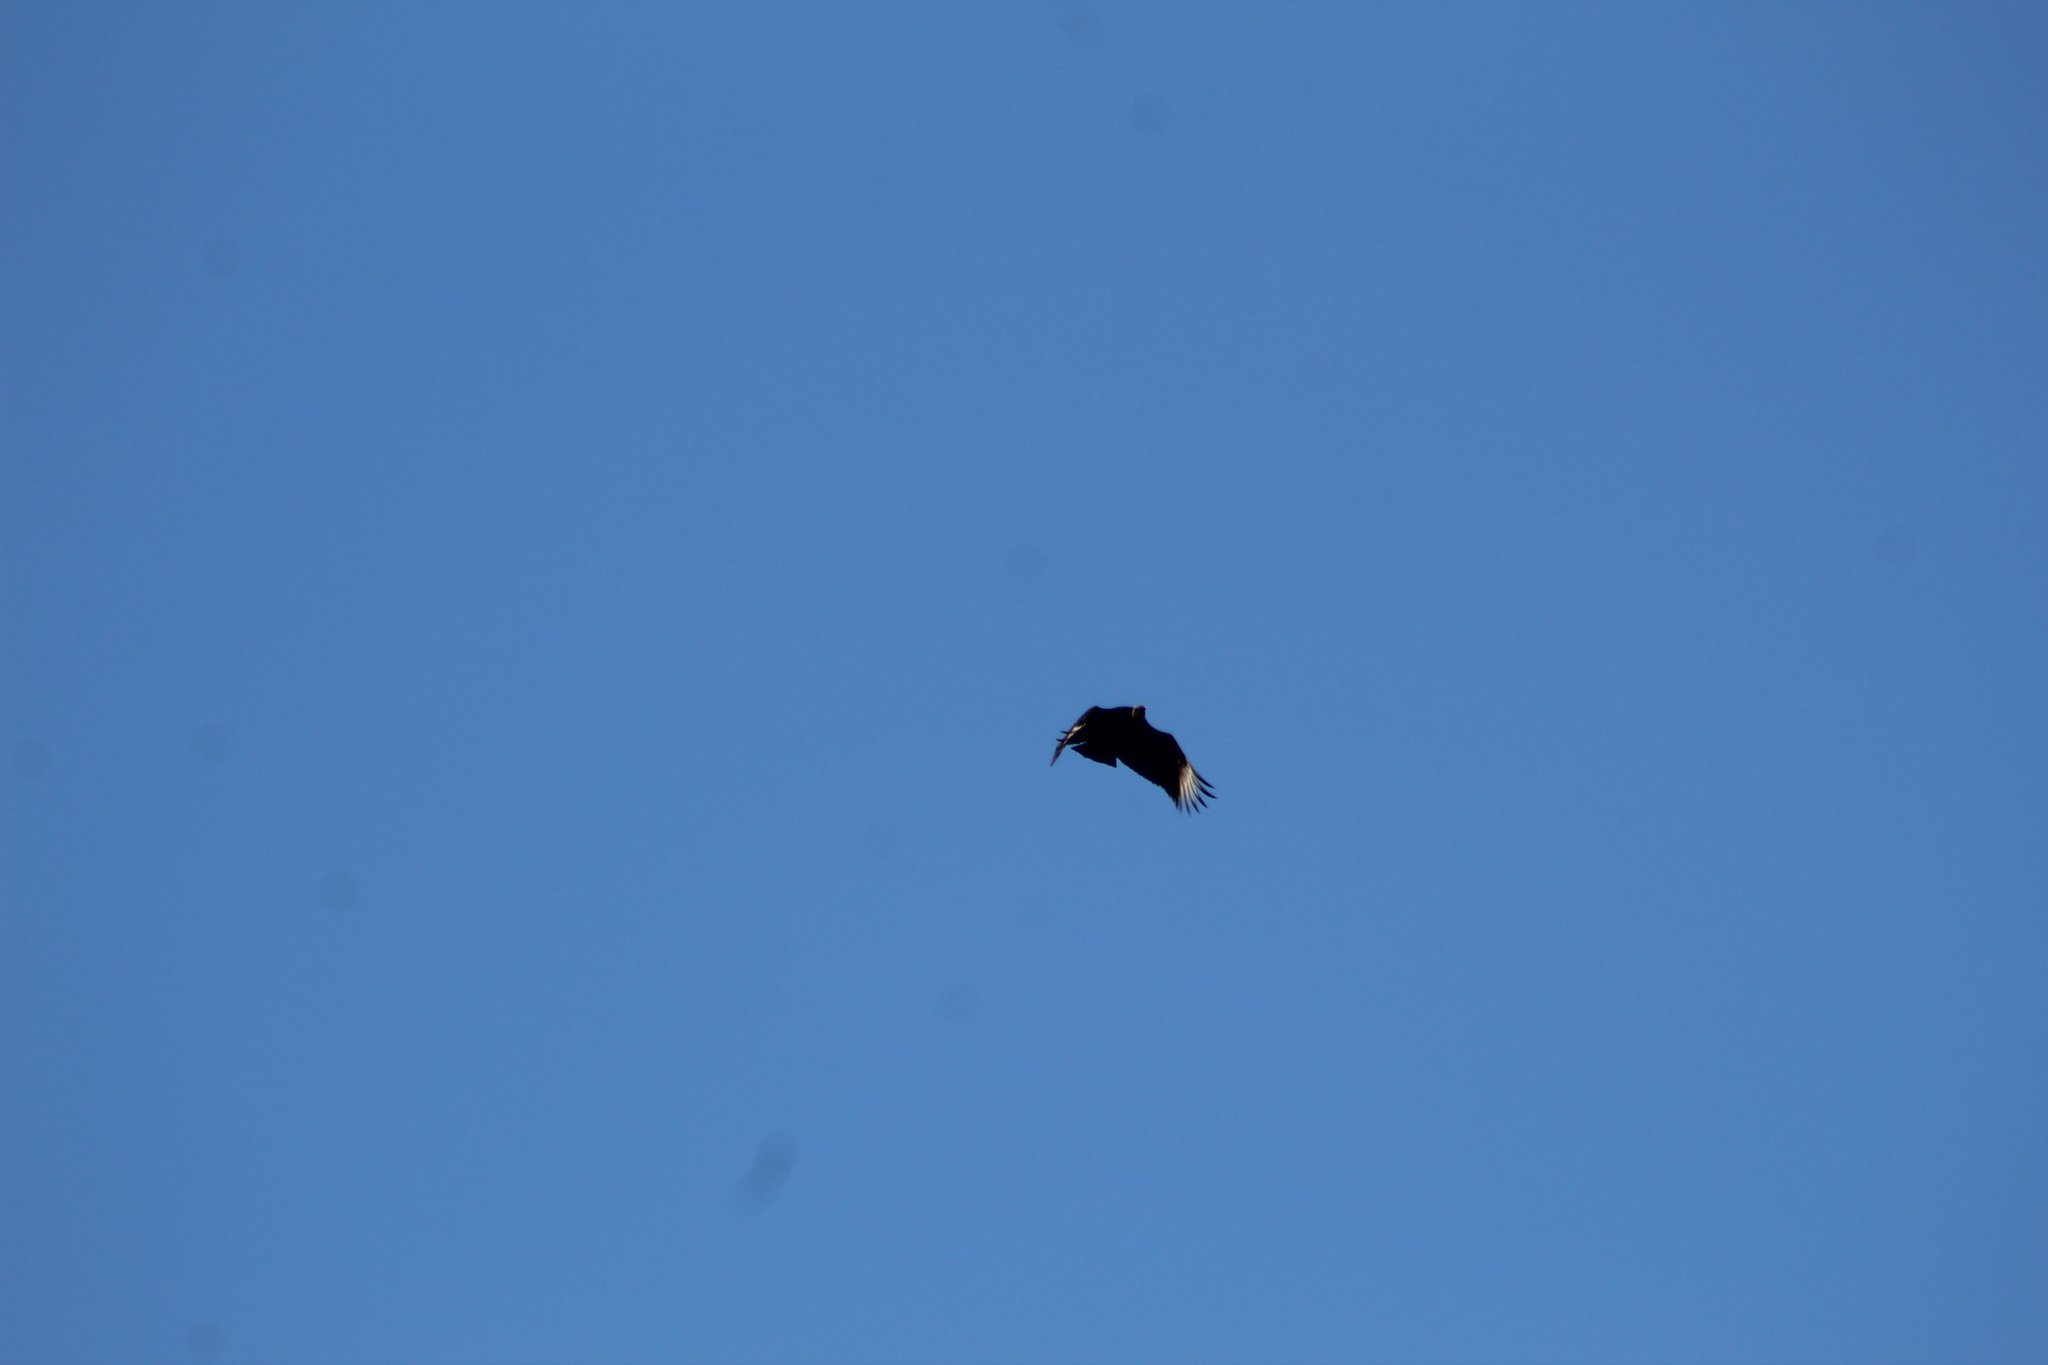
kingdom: Animalia
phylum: Chordata
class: Aves
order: Accipitriformes
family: Cathartidae
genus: Coragyps
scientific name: Coragyps atratus
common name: Black vulture
